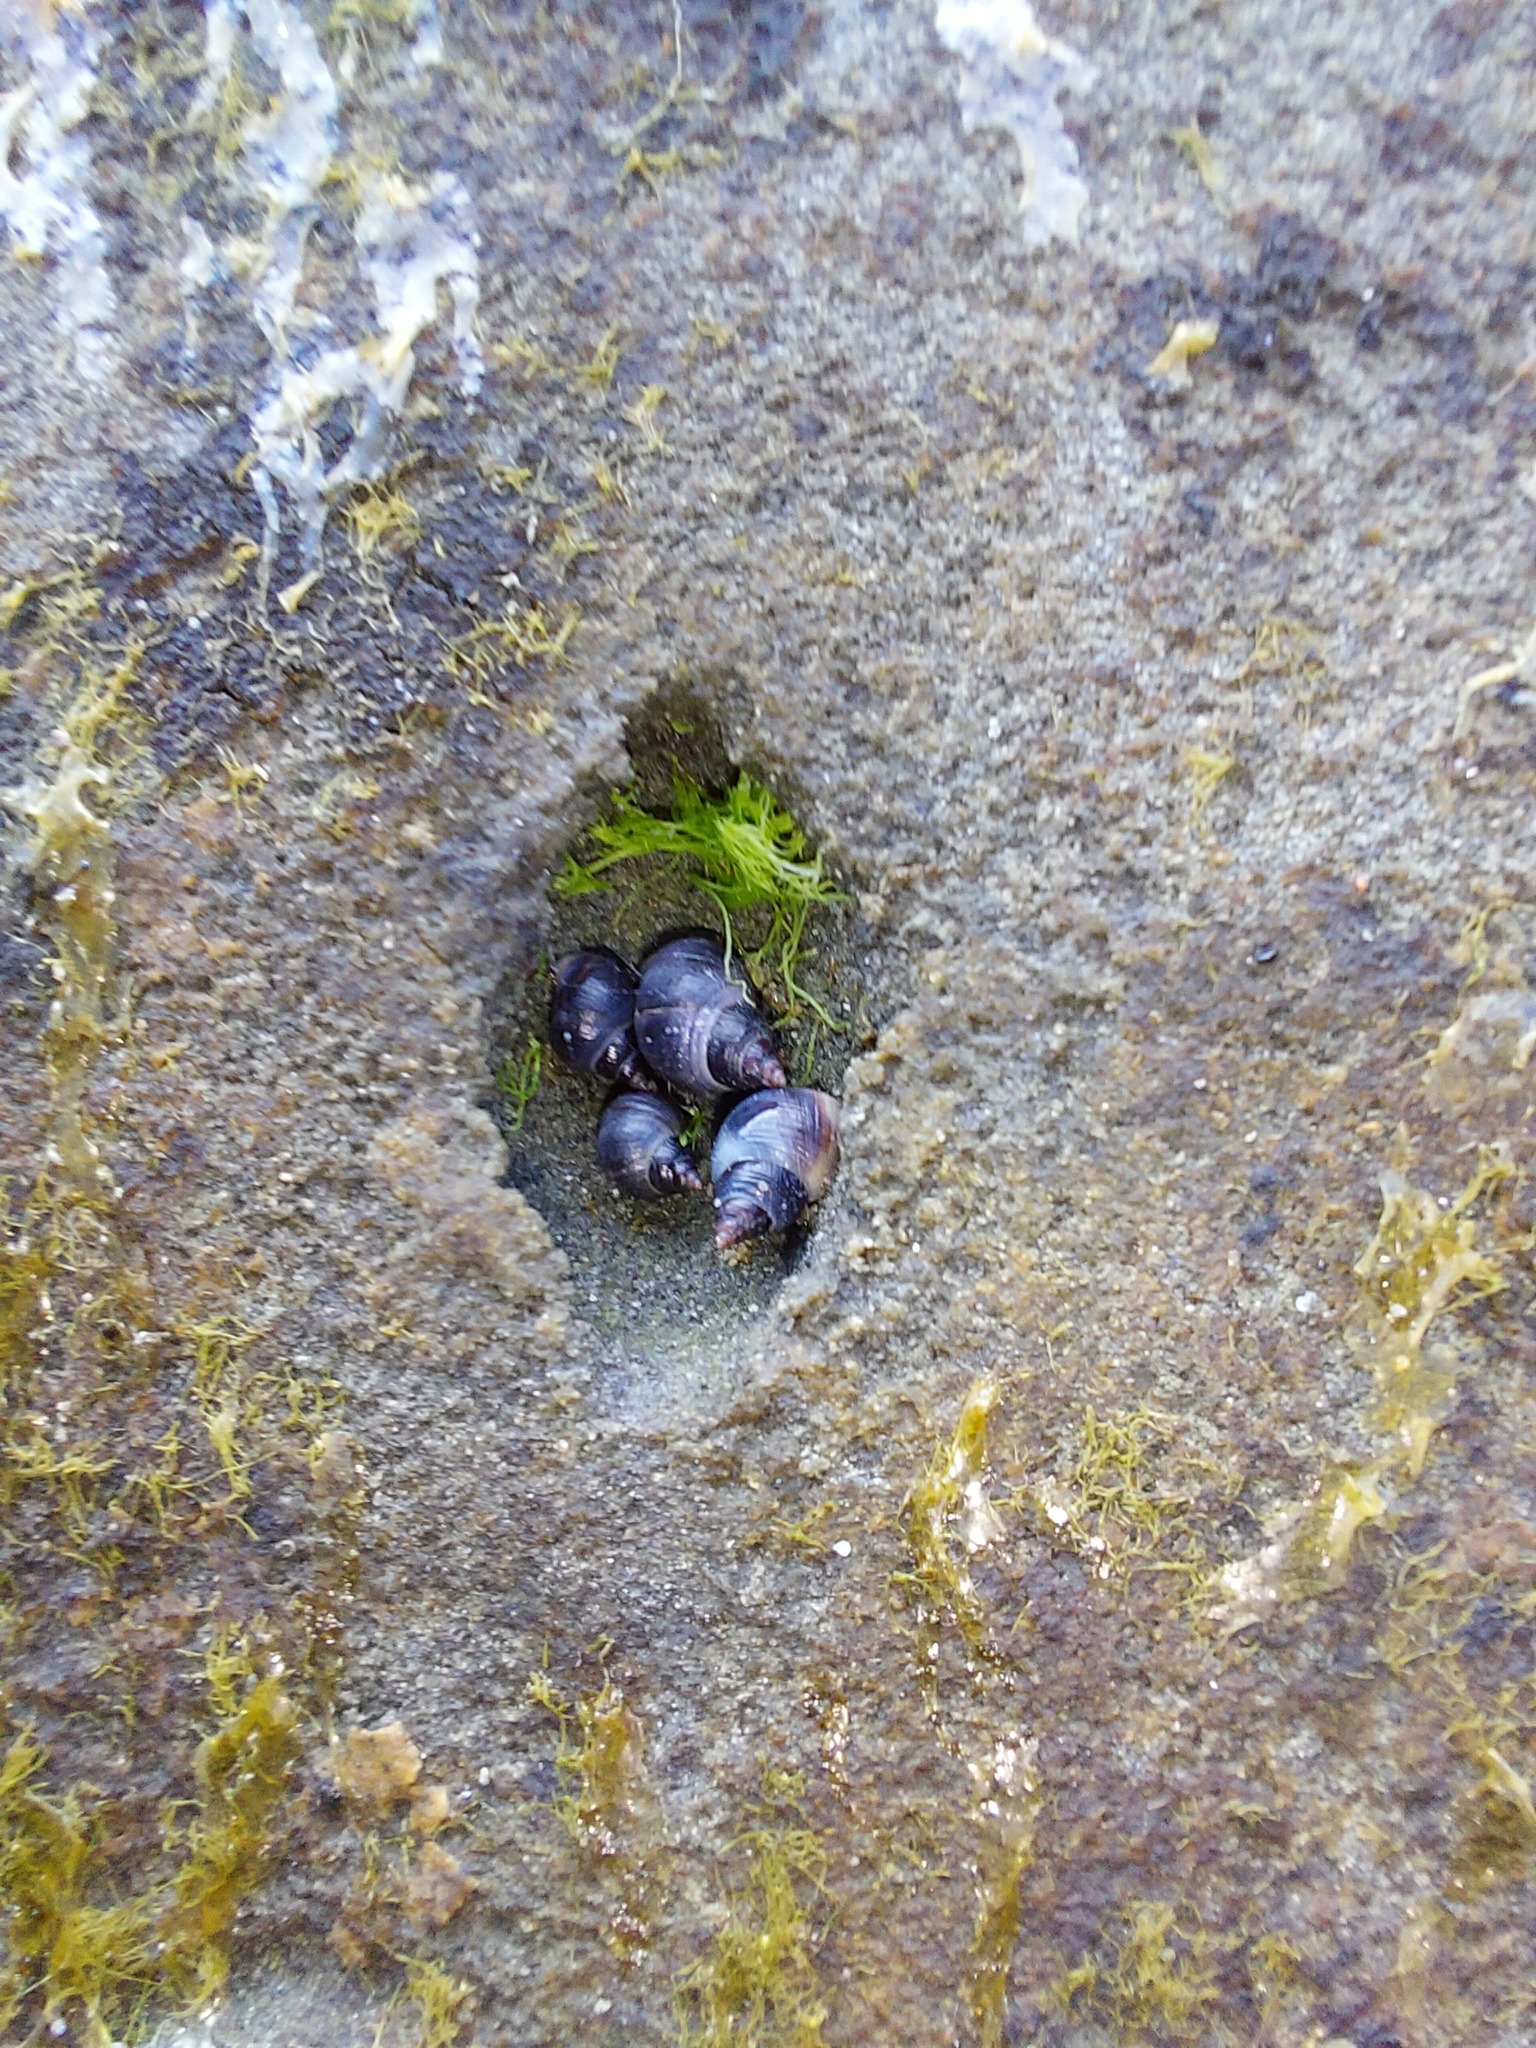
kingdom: Animalia
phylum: Mollusca
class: Gastropoda
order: Littorinimorpha
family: Littorinidae
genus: Austrolittorina
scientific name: Austrolittorina cincta
